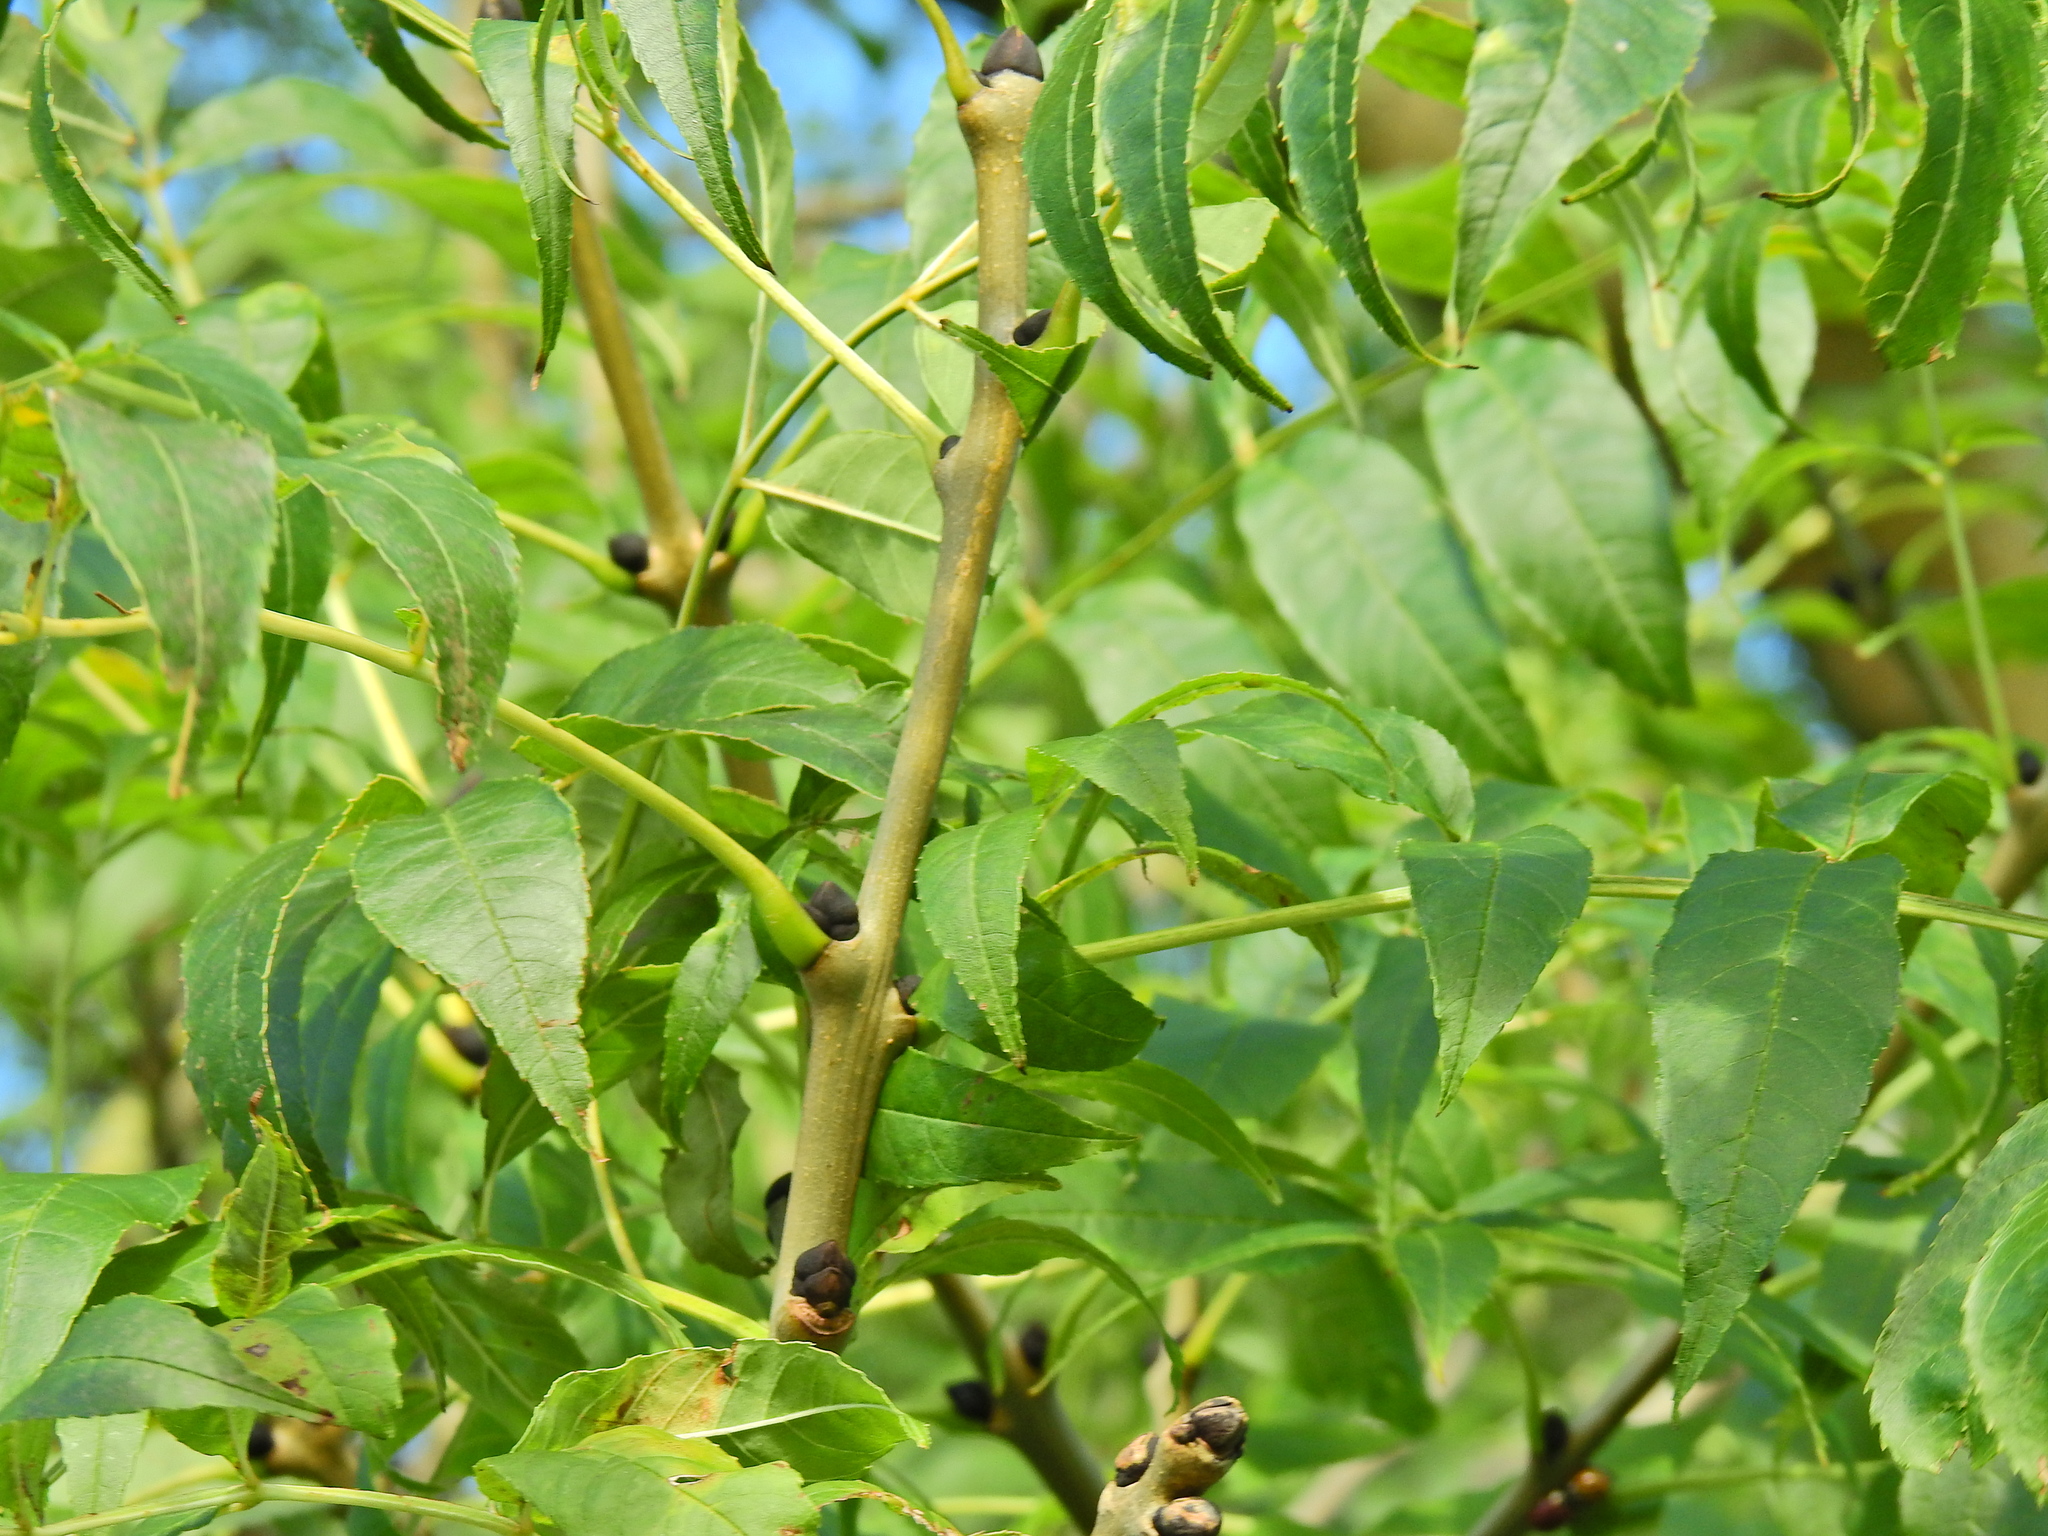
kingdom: Plantae
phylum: Tracheophyta
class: Magnoliopsida
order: Lamiales
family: Oleaceae
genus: Fraxinus
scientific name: Fraxinus excelsior
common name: European ash
